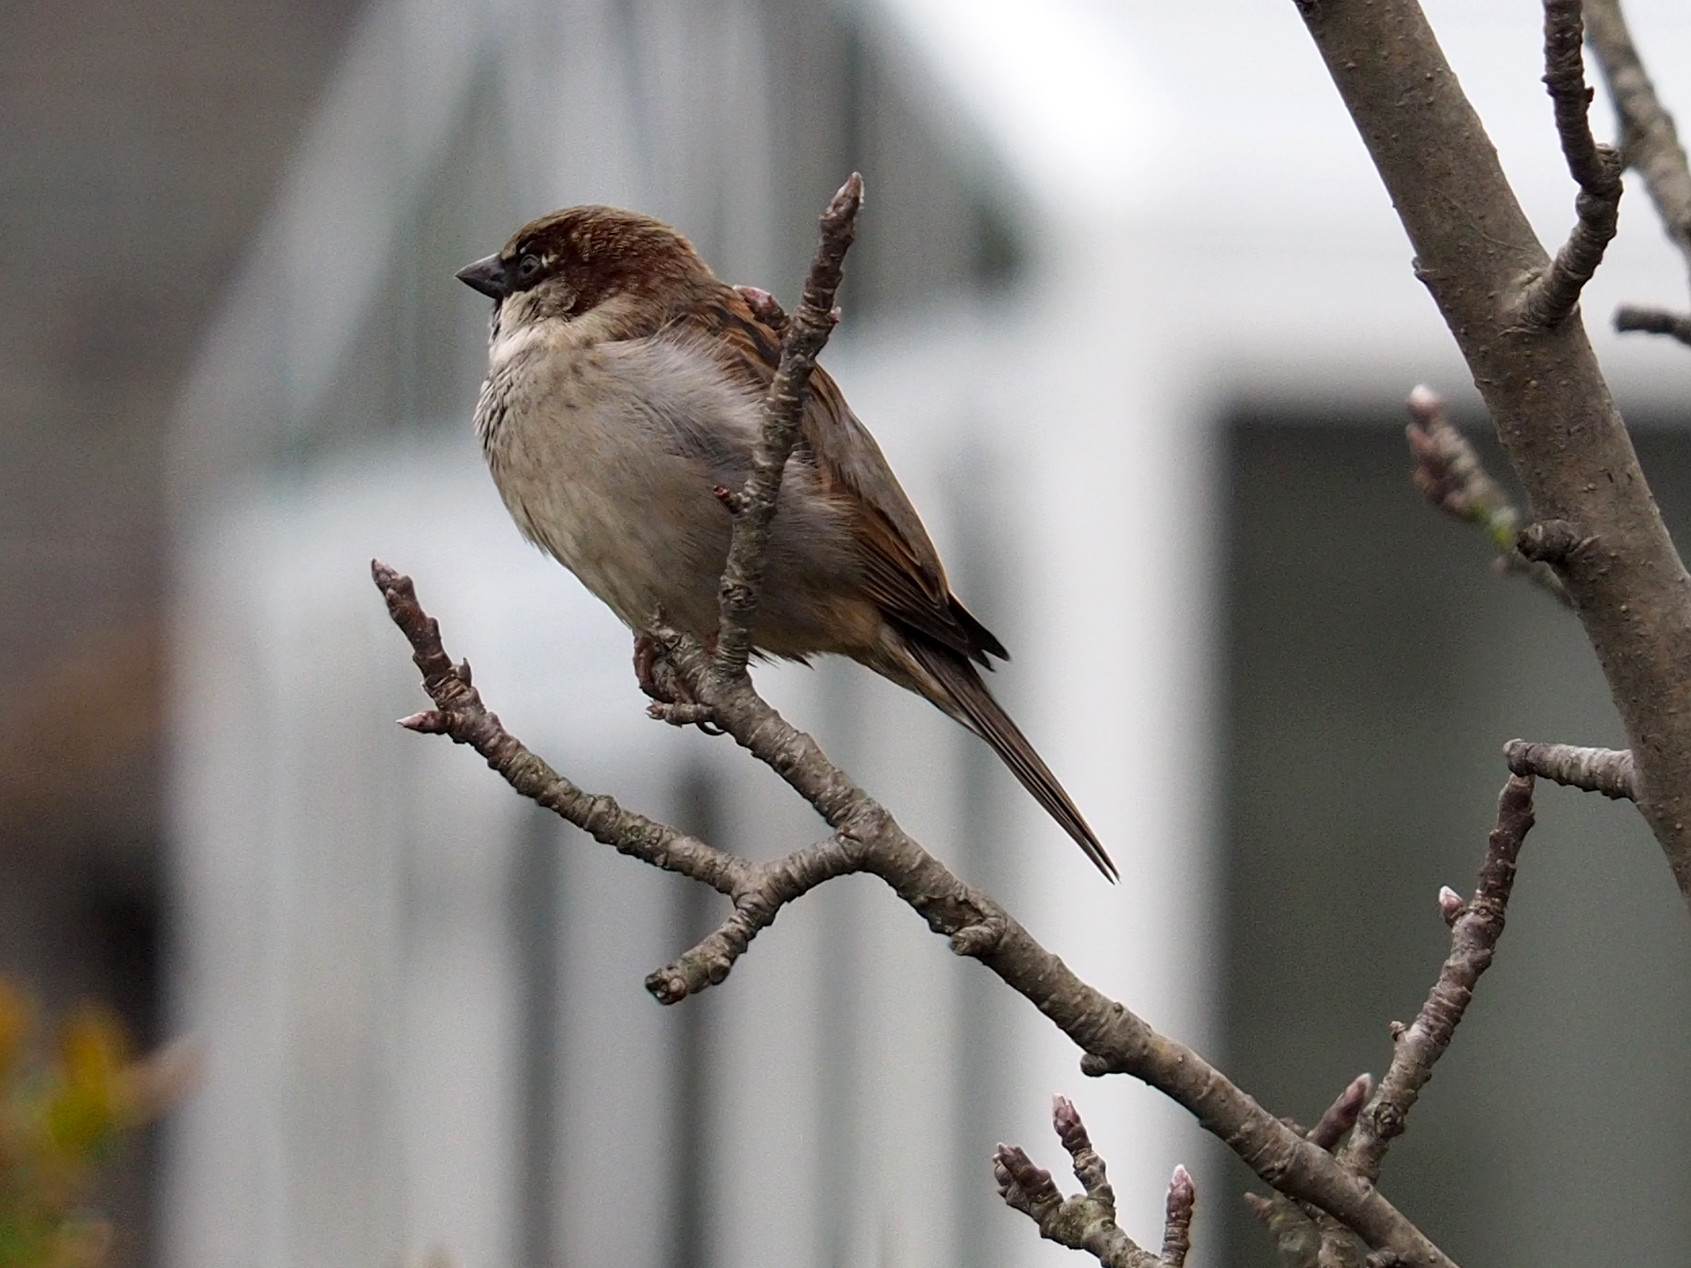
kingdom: Animalia
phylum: Chordata
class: Aves
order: Passeriformes
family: Passeridae
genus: Passer
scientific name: Passer domesticus
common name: House sparrow
